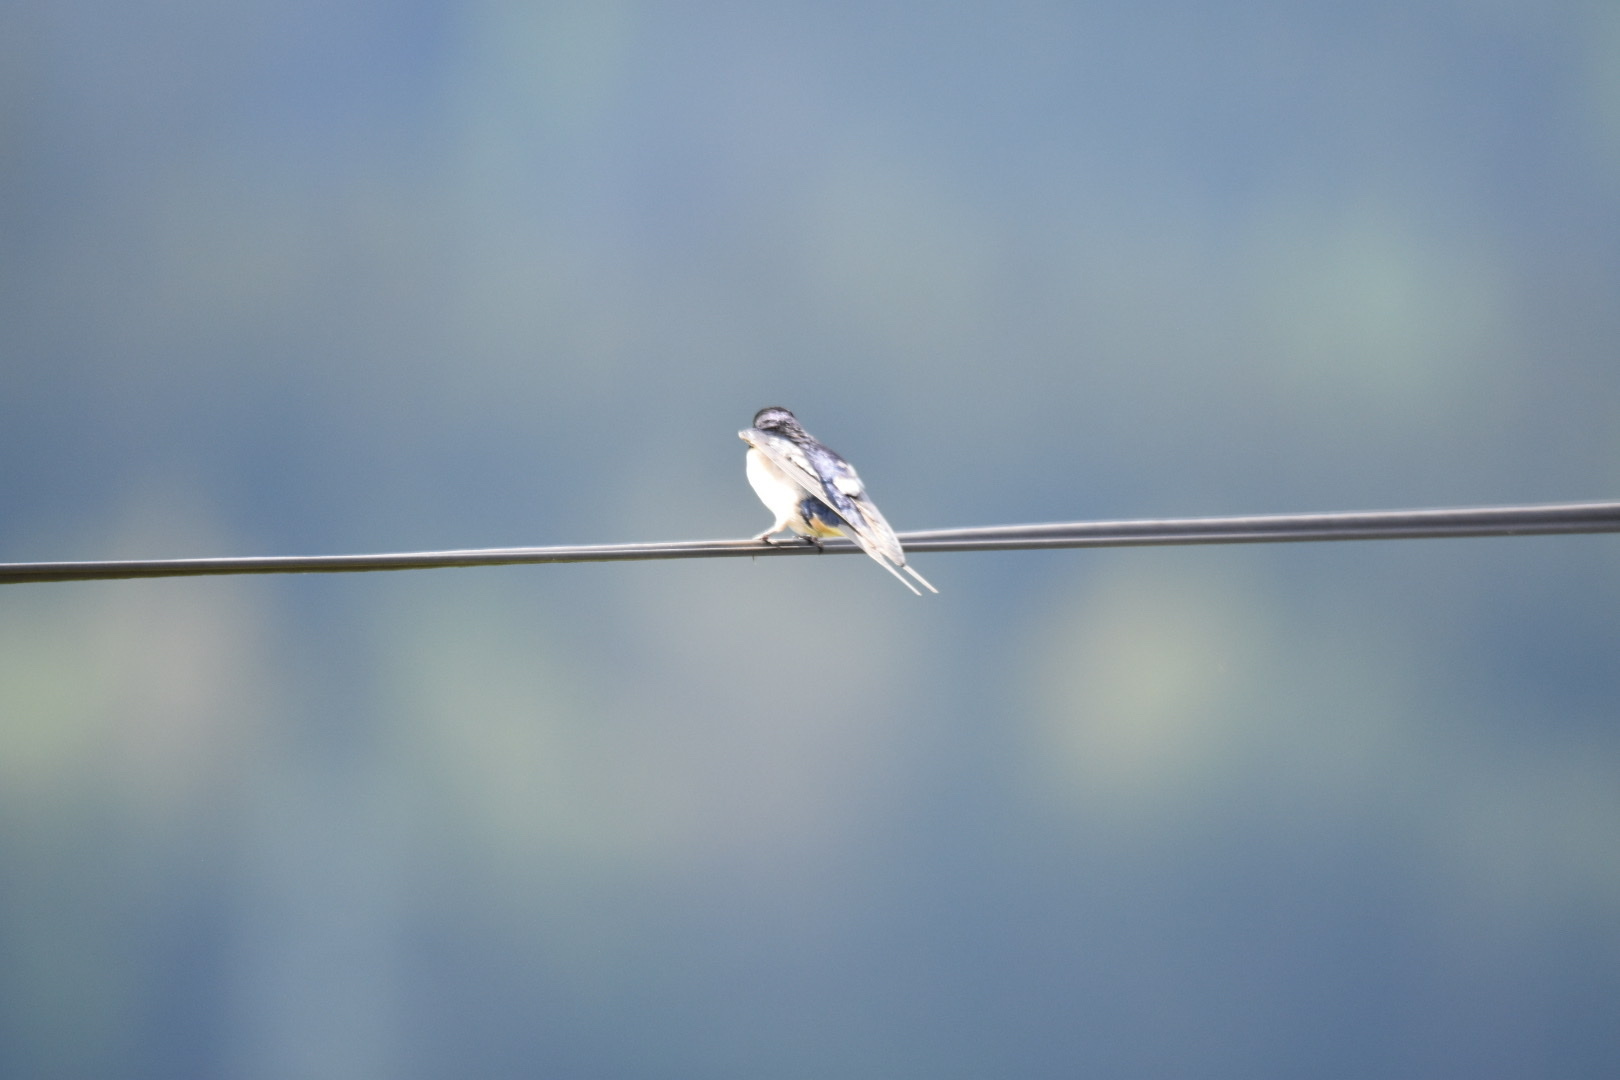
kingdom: Animalia
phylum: Chordata
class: Aves
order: Passeriformes
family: Hirundinidae
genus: Hirundo
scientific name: Hirundo rustica
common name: Barn swallow
